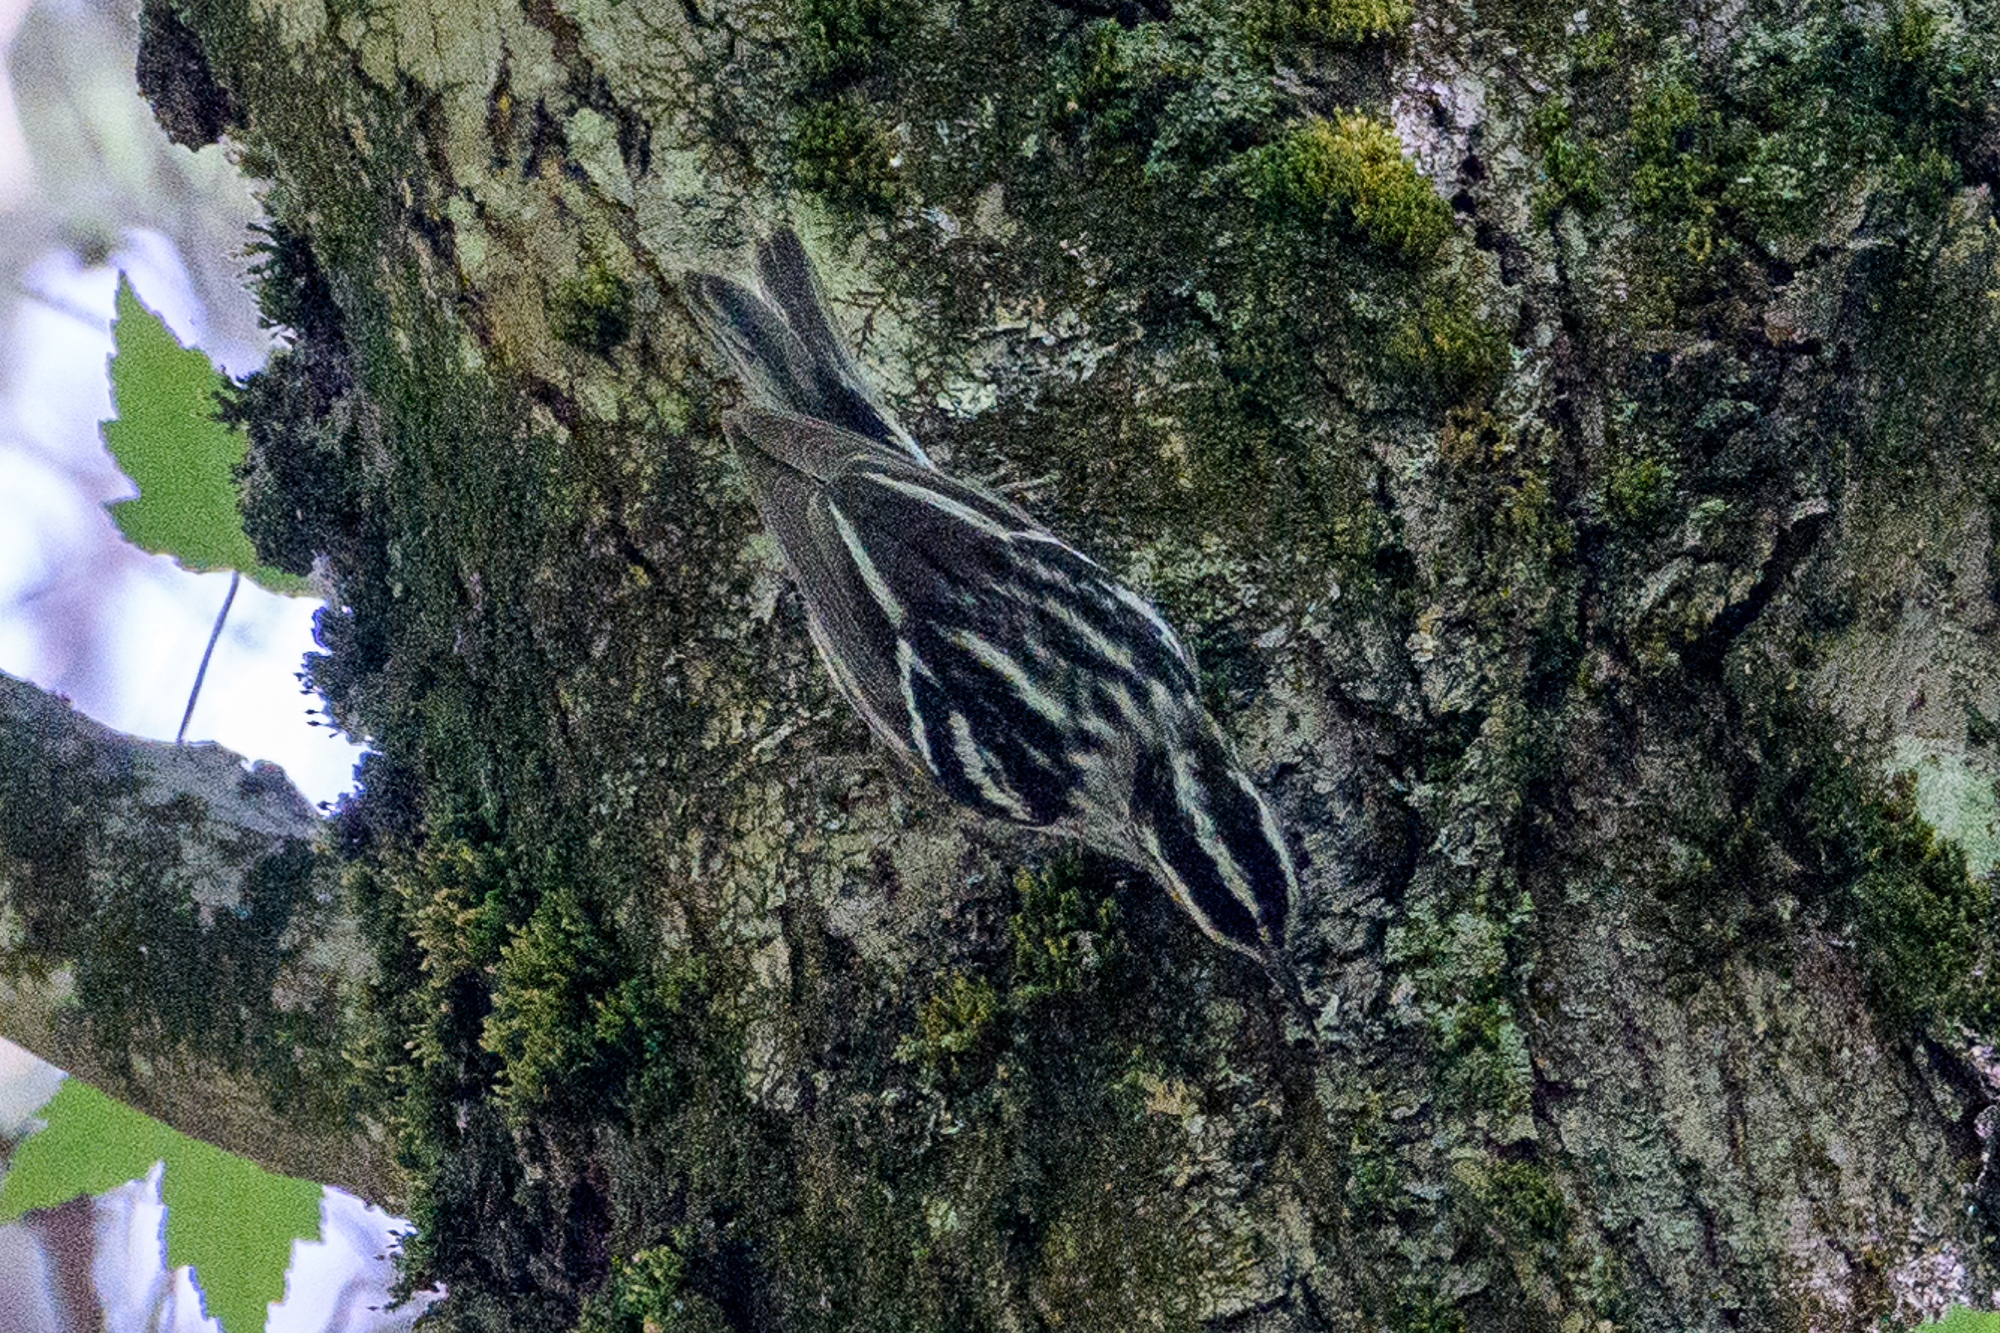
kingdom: Animalia
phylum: Chordata
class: Aves
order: Passeriformes
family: Parulidae
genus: Mniotilta
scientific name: Mniotilta varia
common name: Black-and-white warbler
